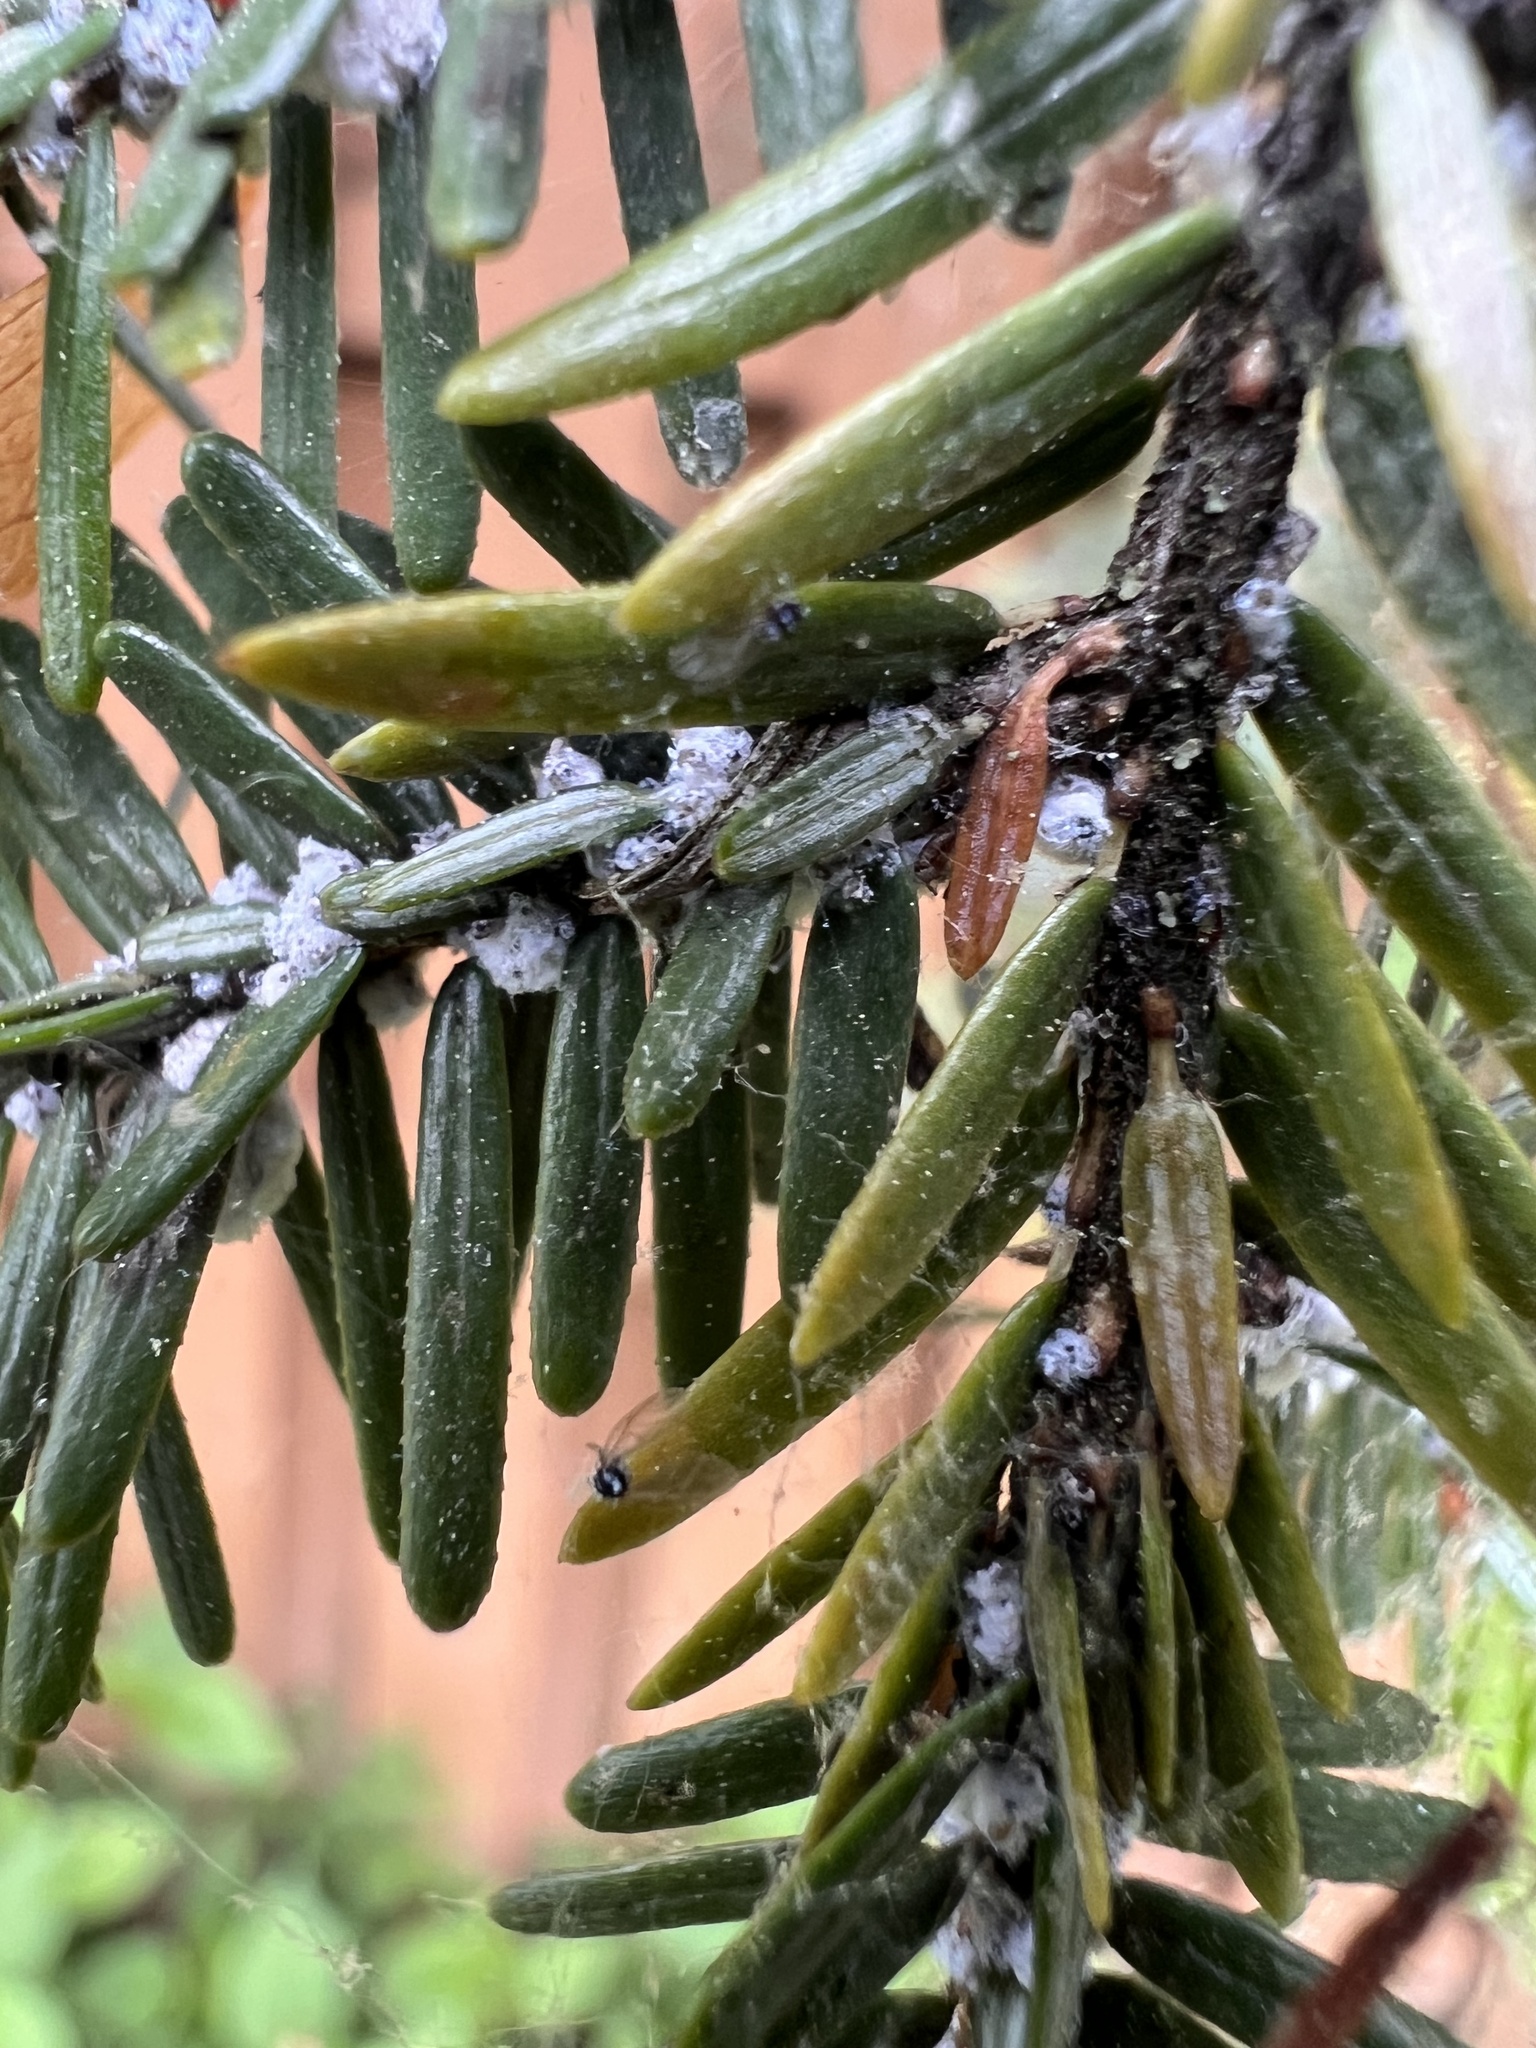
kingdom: Animalia
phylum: Arthropoda
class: Insecta
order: Hemiptera
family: Adelgidae
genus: Adelges
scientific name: Adelges tsugae
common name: Hemlock woolly adelgid
